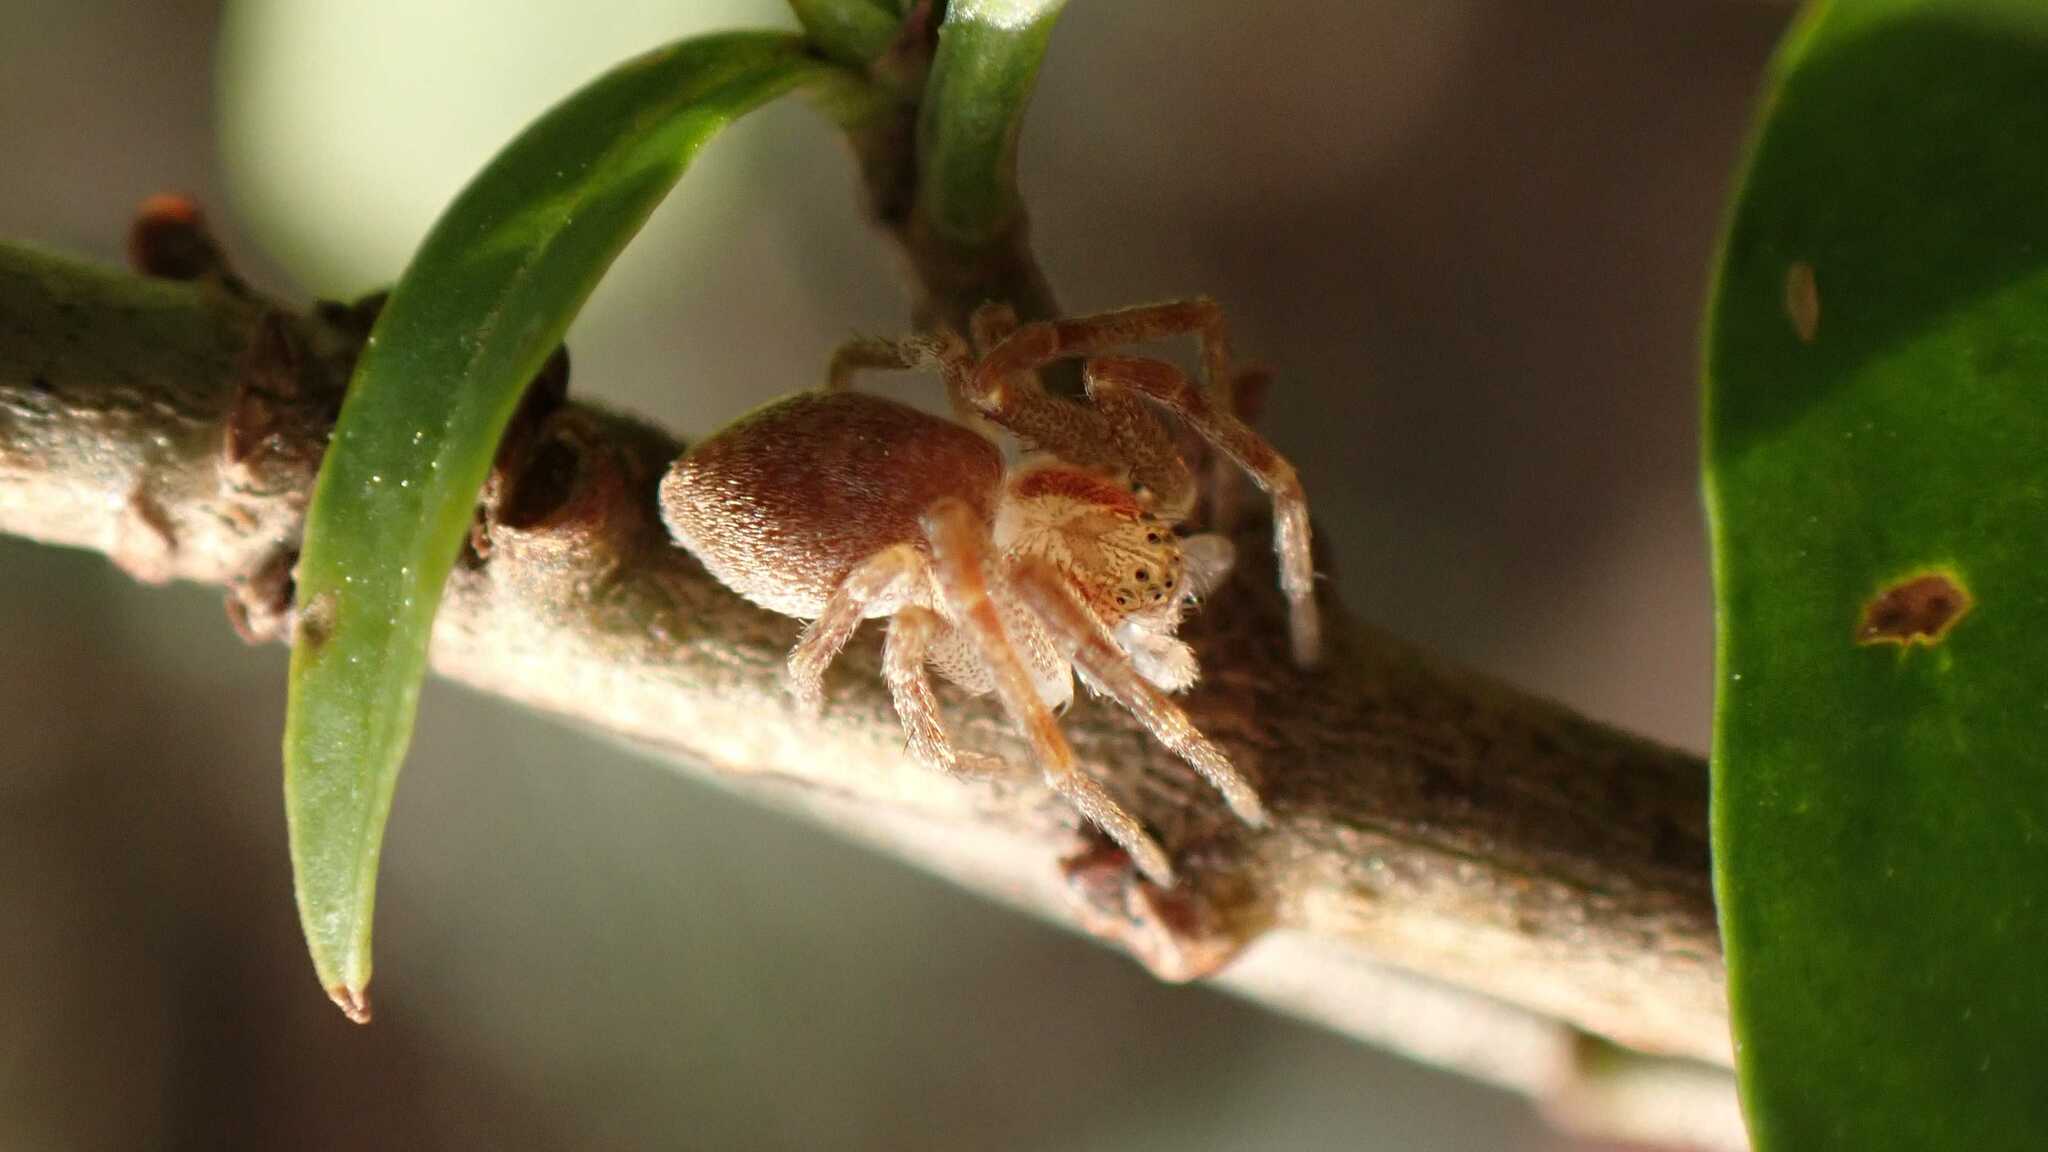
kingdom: Animalia
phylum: Arthropoda
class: Arachnida
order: Araneae
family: Philodromidae
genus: Philodromus
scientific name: Philodromus
